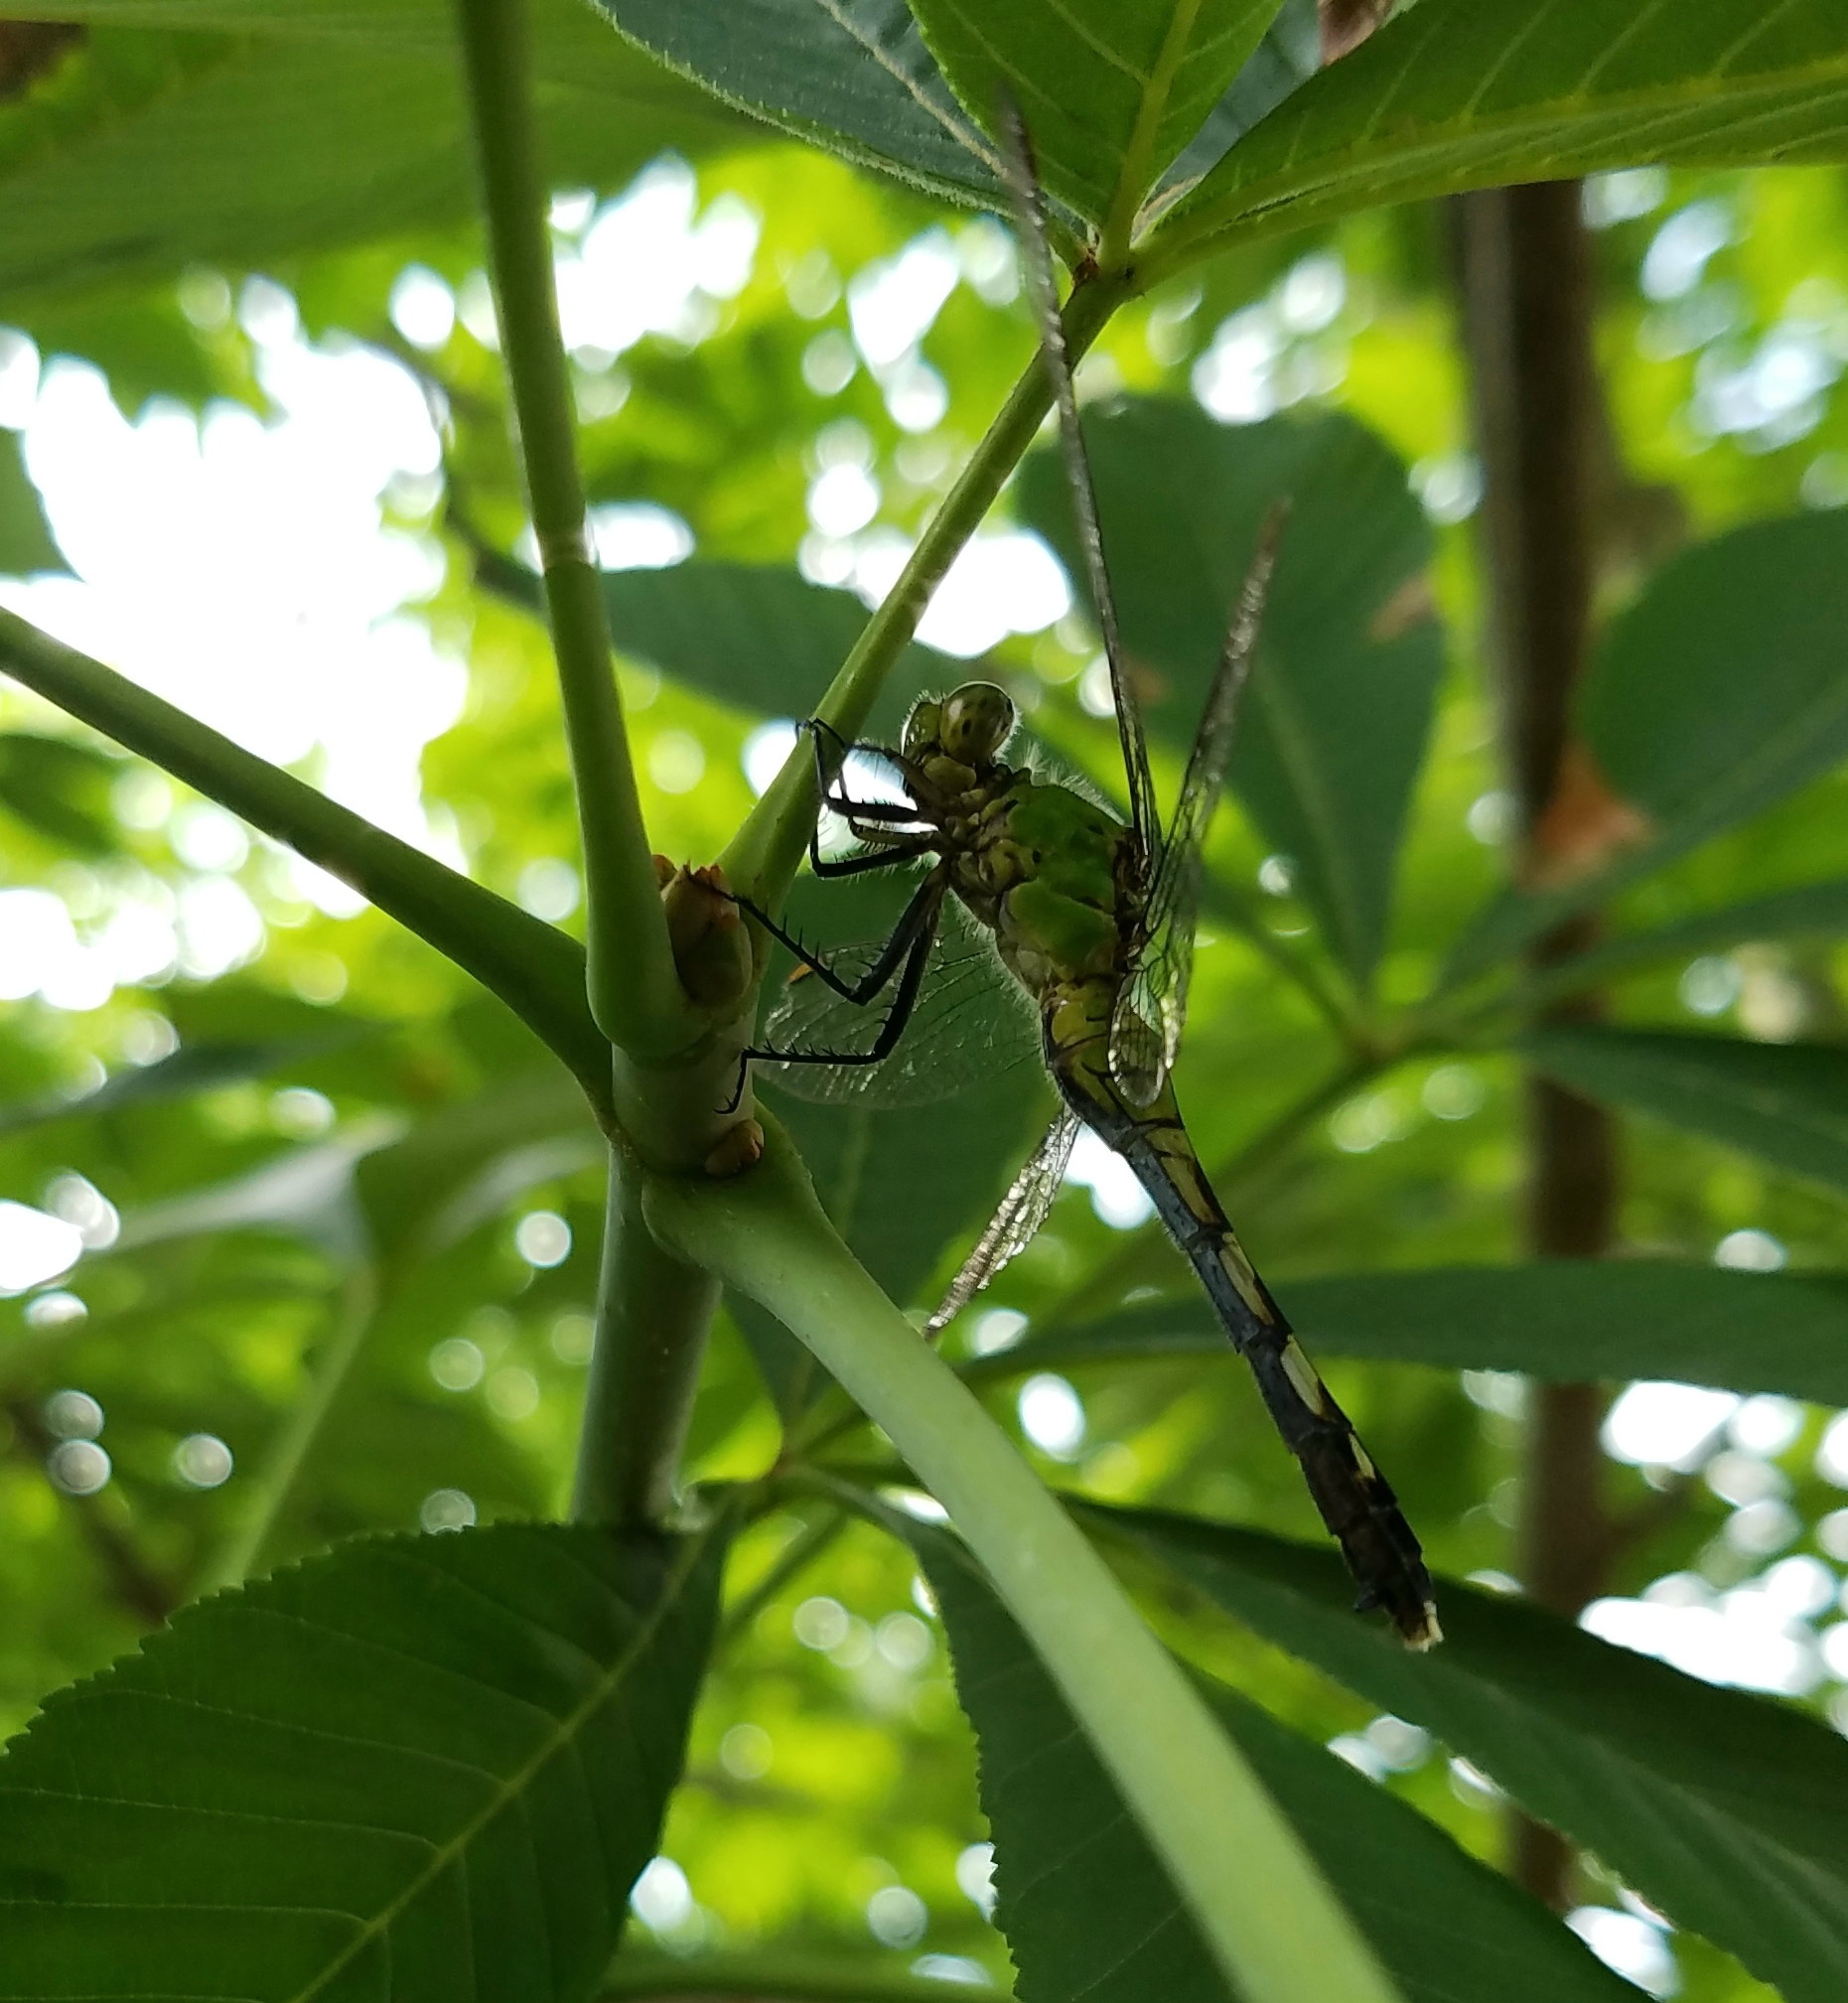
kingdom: Animalia
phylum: Arthropoda
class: Insecta
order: Odonata
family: Libellulidae
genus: Erythemis
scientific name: Erythemis simplicicollis
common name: Eastern pondhawk
